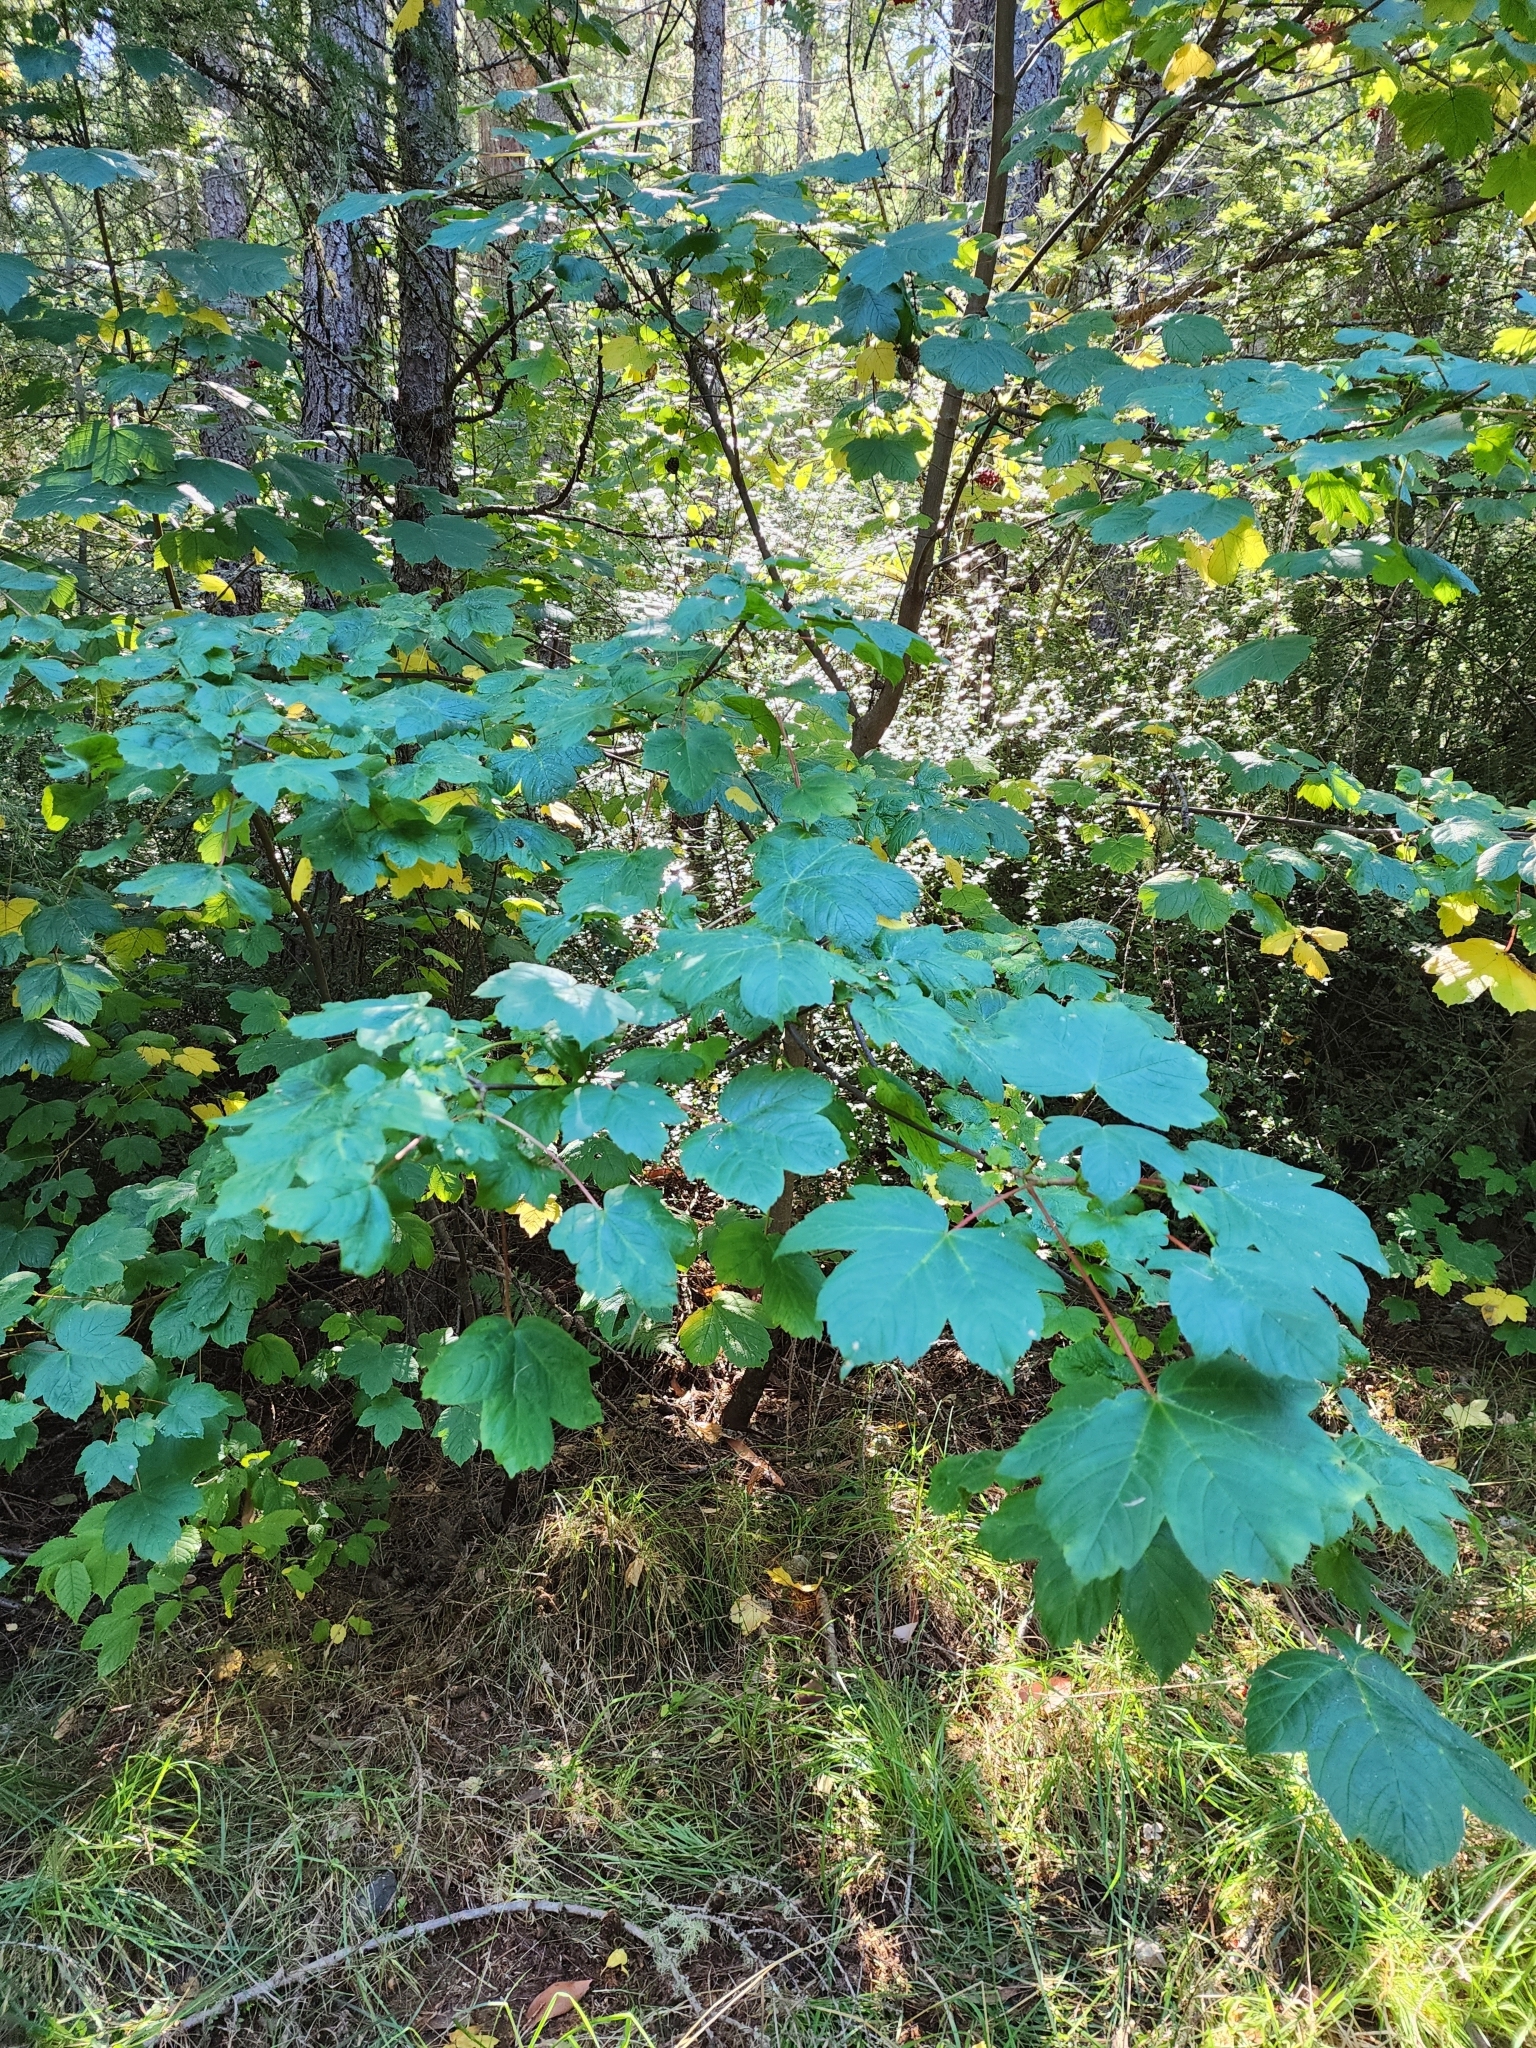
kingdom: Plantae
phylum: Tracheophyta
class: Magnoliopsida
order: Sapindales
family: Sapindaceae
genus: Acer
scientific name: Acer pseudoplatanus
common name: Sycamore
